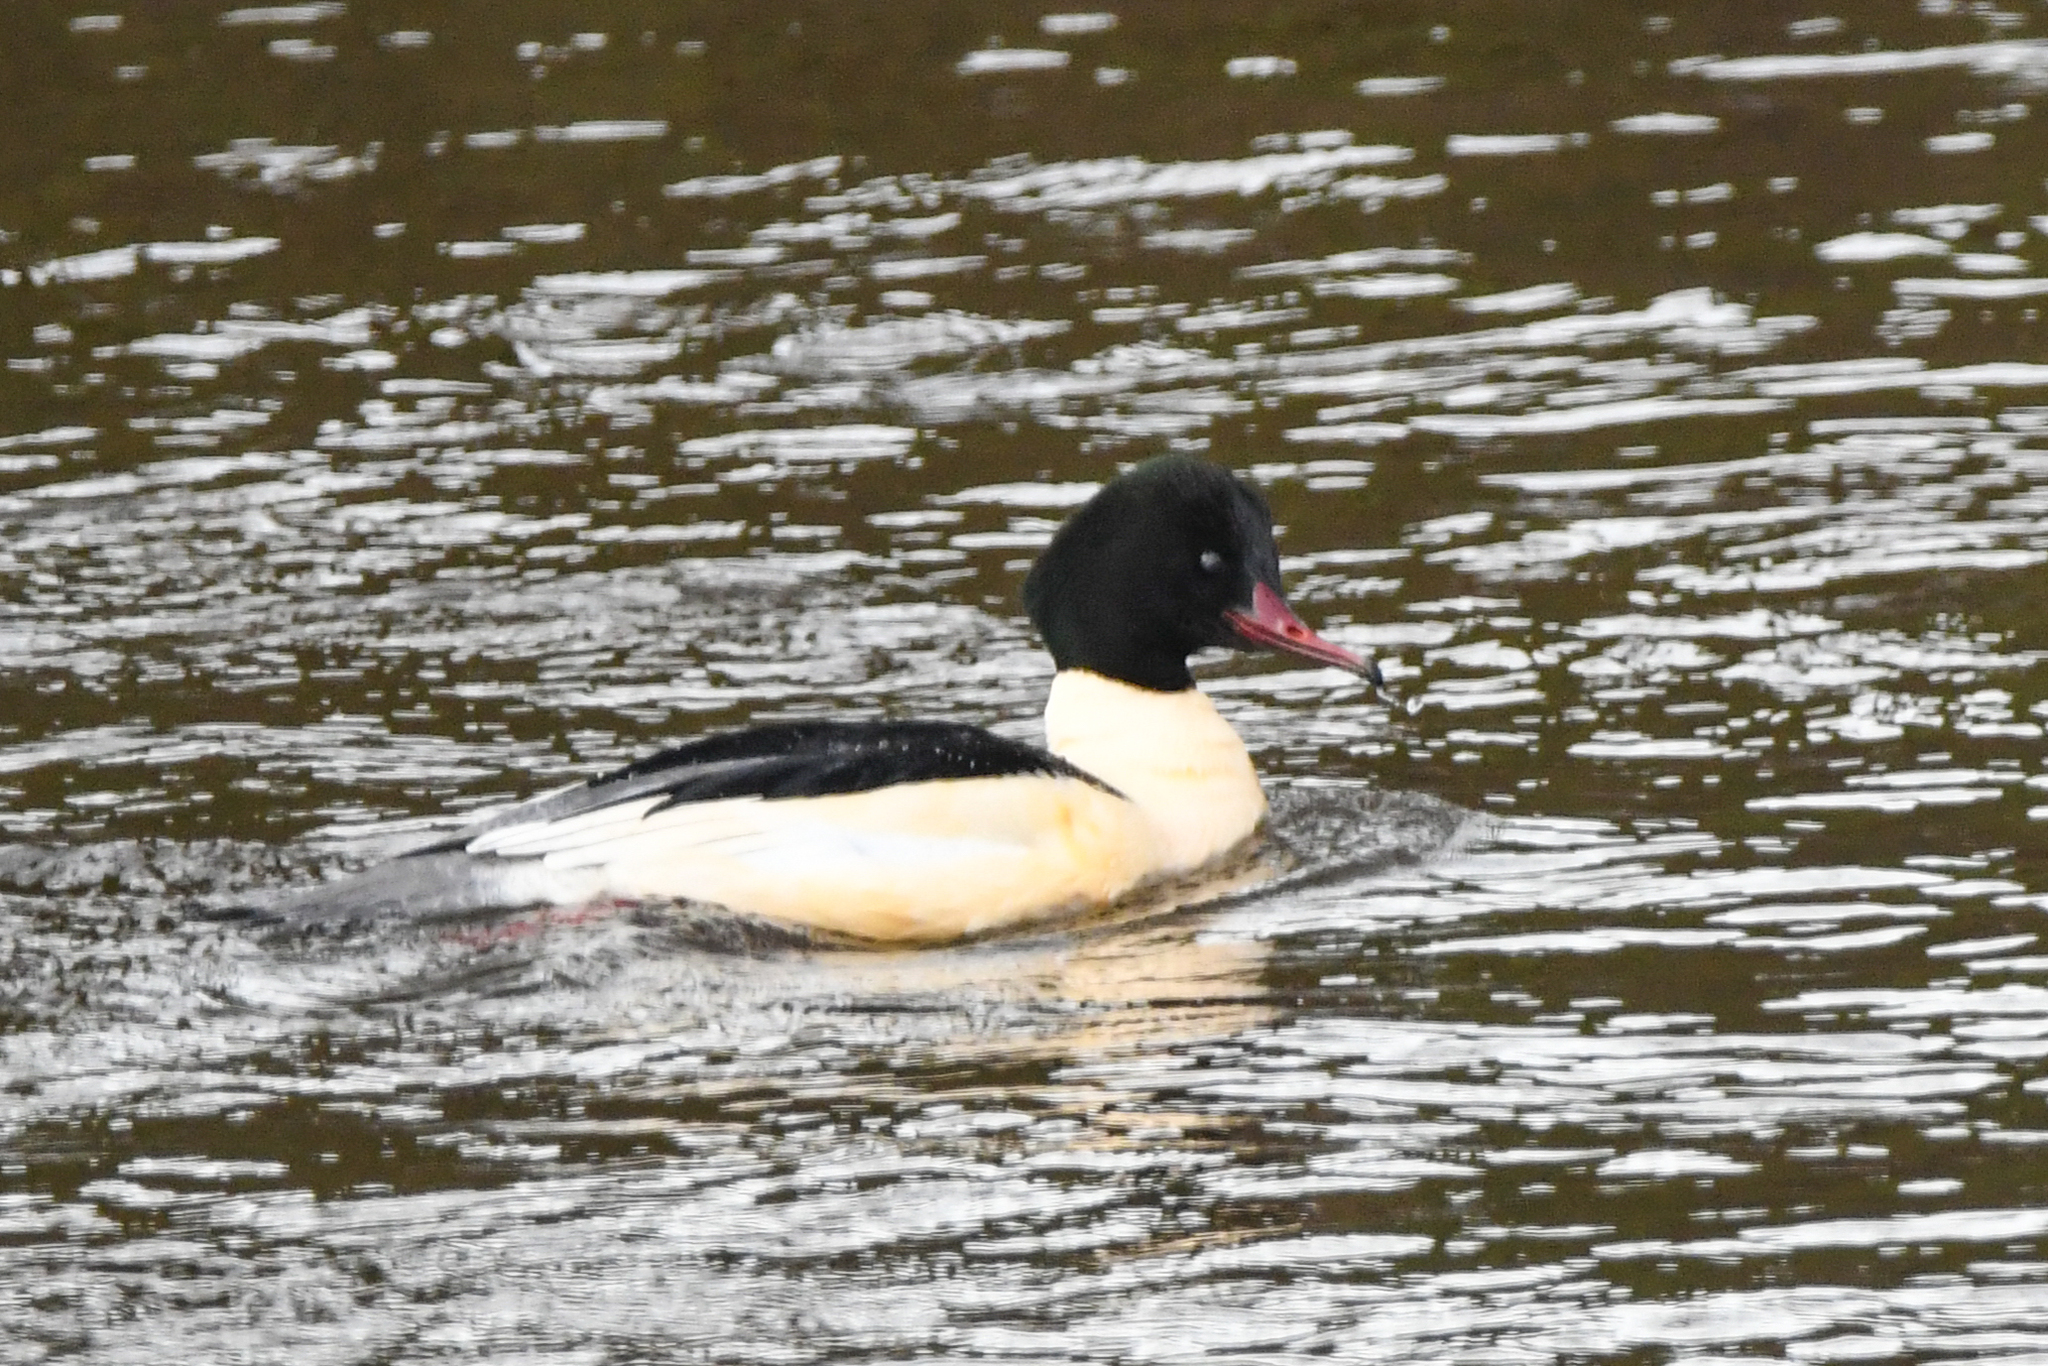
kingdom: Animalia
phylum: Chordata
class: Aves
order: Anseriformes
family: Anatidae
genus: Mergus
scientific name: Mergus merganser
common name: Common merganser
